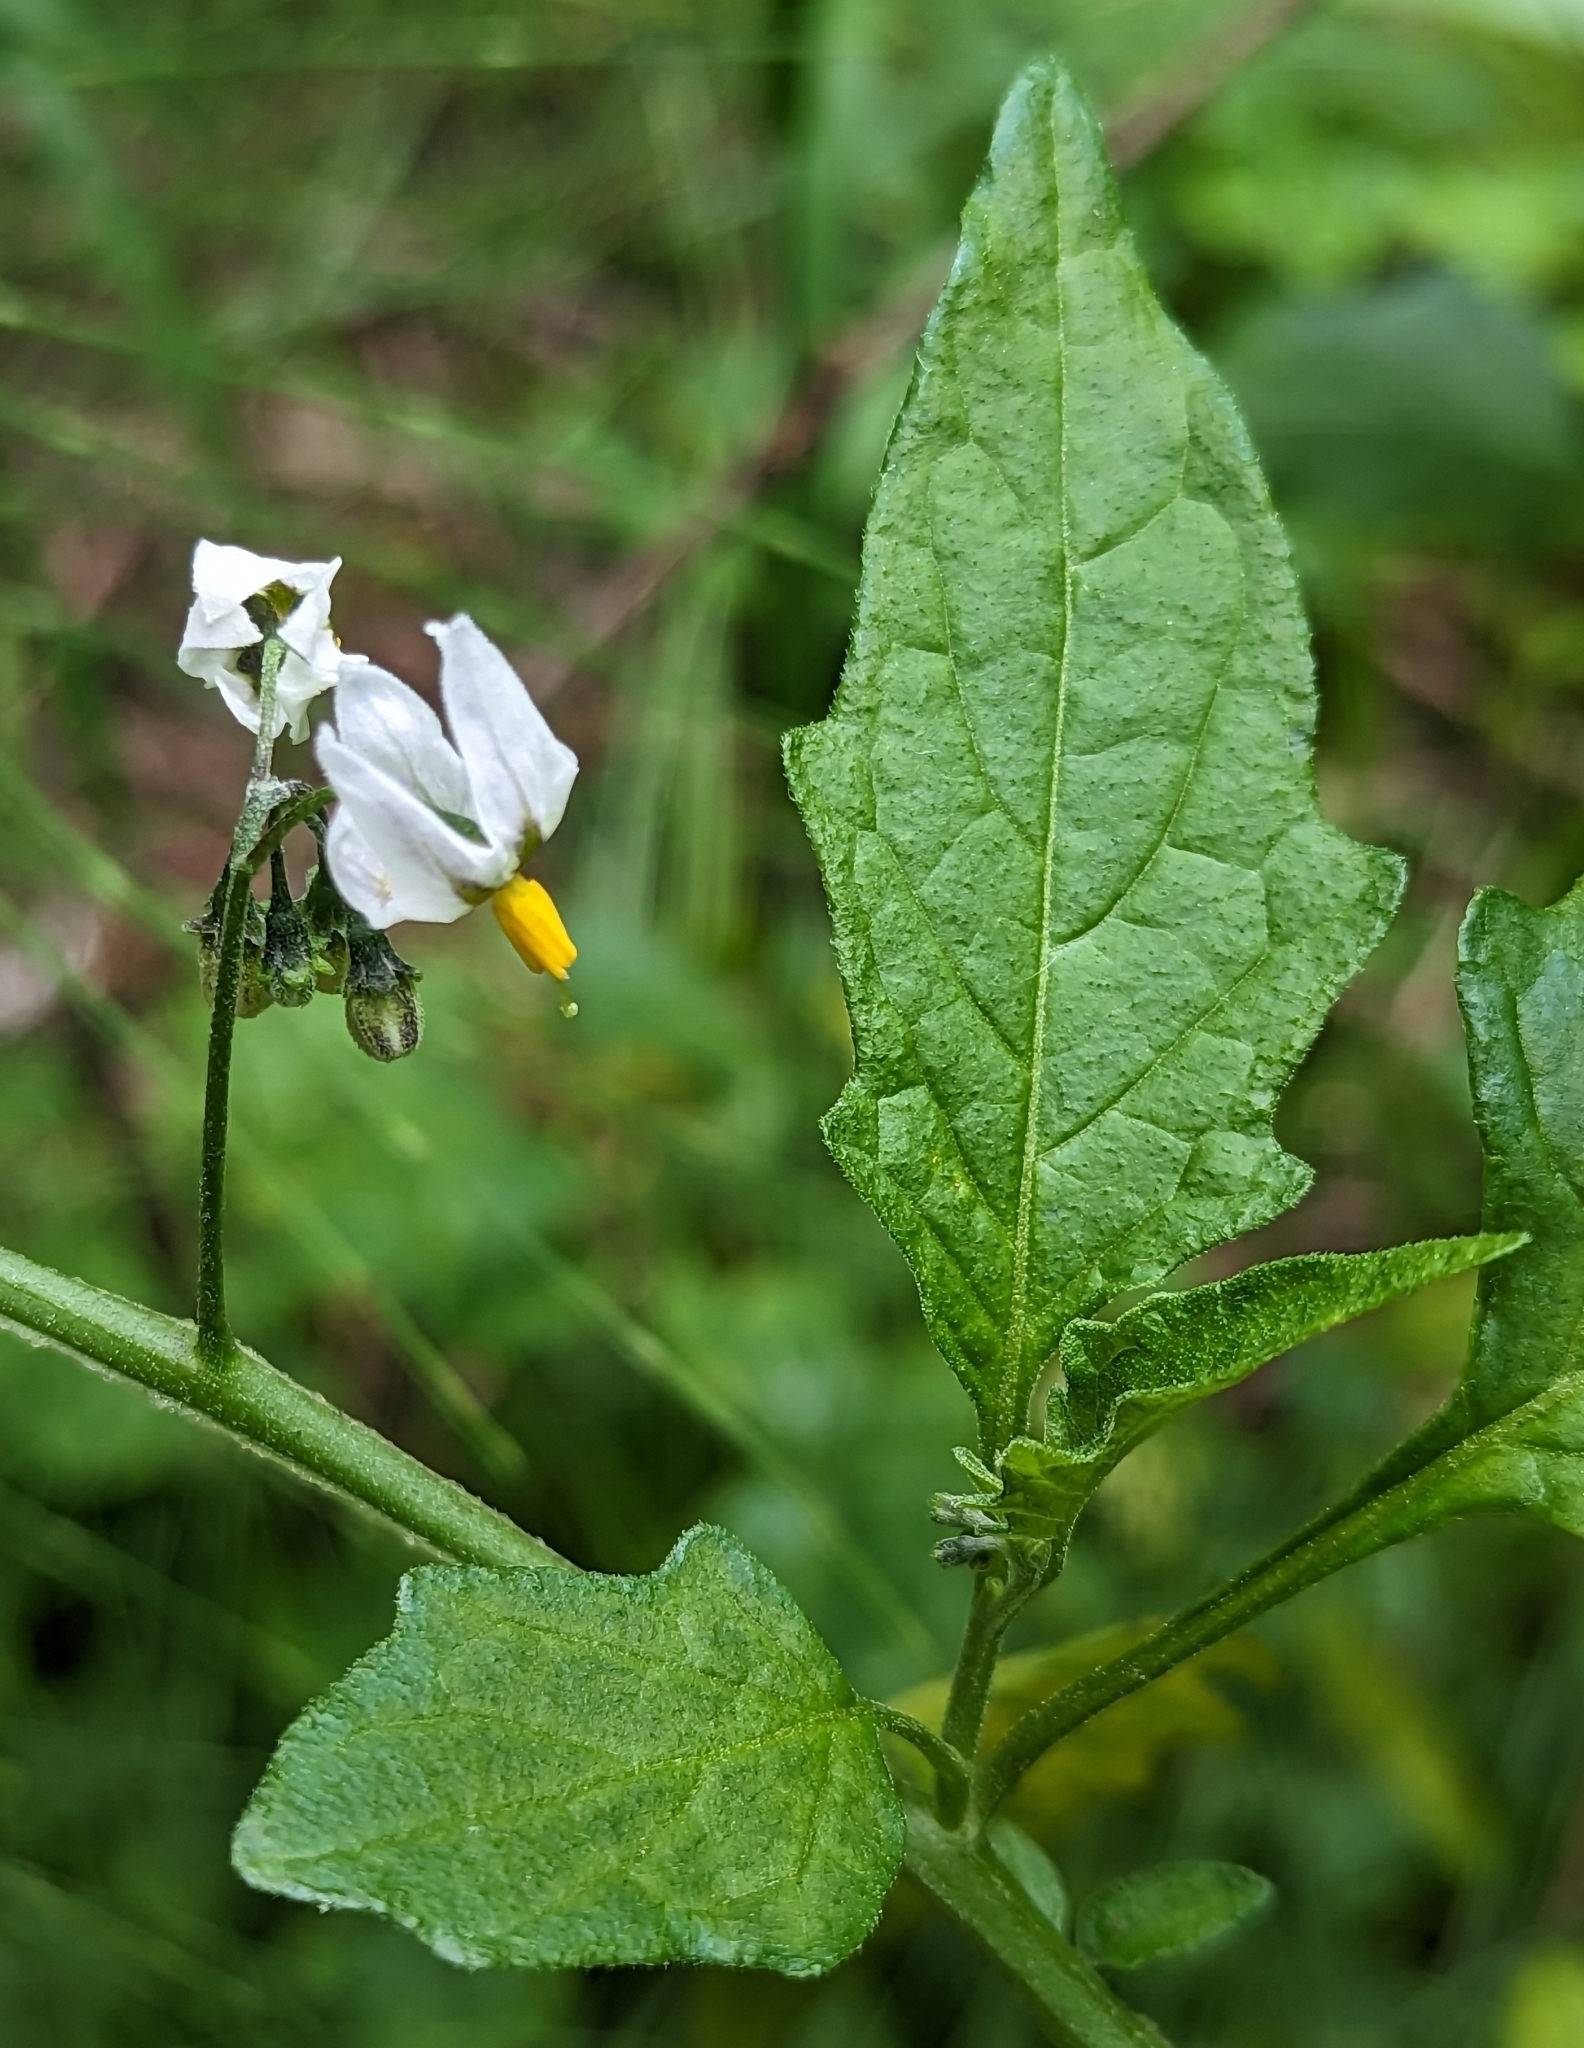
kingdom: Plantae
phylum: Tracheophyta
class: Magnoliopsida
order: Solanales
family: Solanaceae
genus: Solanum
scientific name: Solanum furcatum
